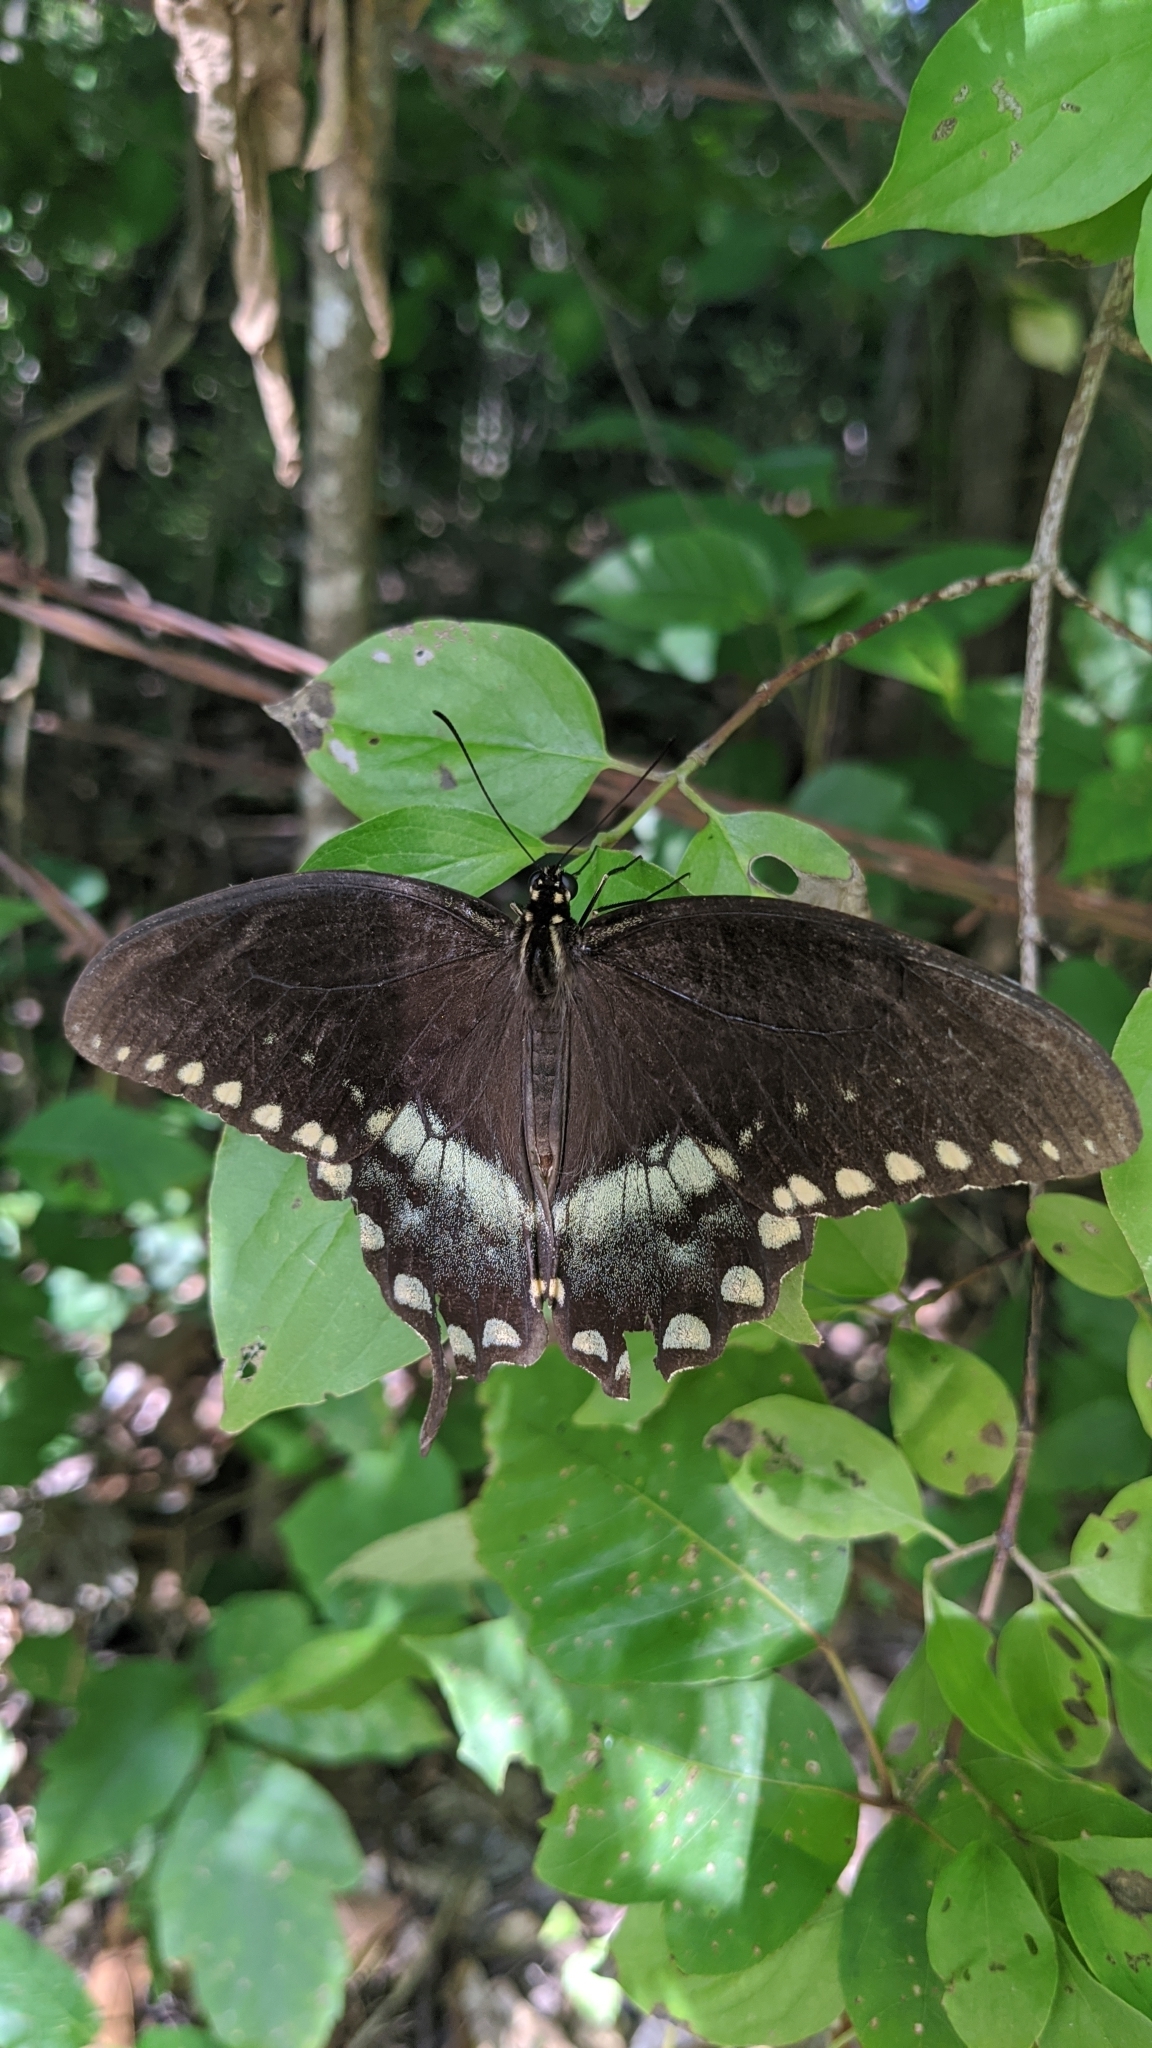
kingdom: Animalia
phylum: Arthropoda
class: Insecta
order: Lepidoptera
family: Papilionidae
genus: Papilio
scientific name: Papilio troilus
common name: Spicebush swallowtail
